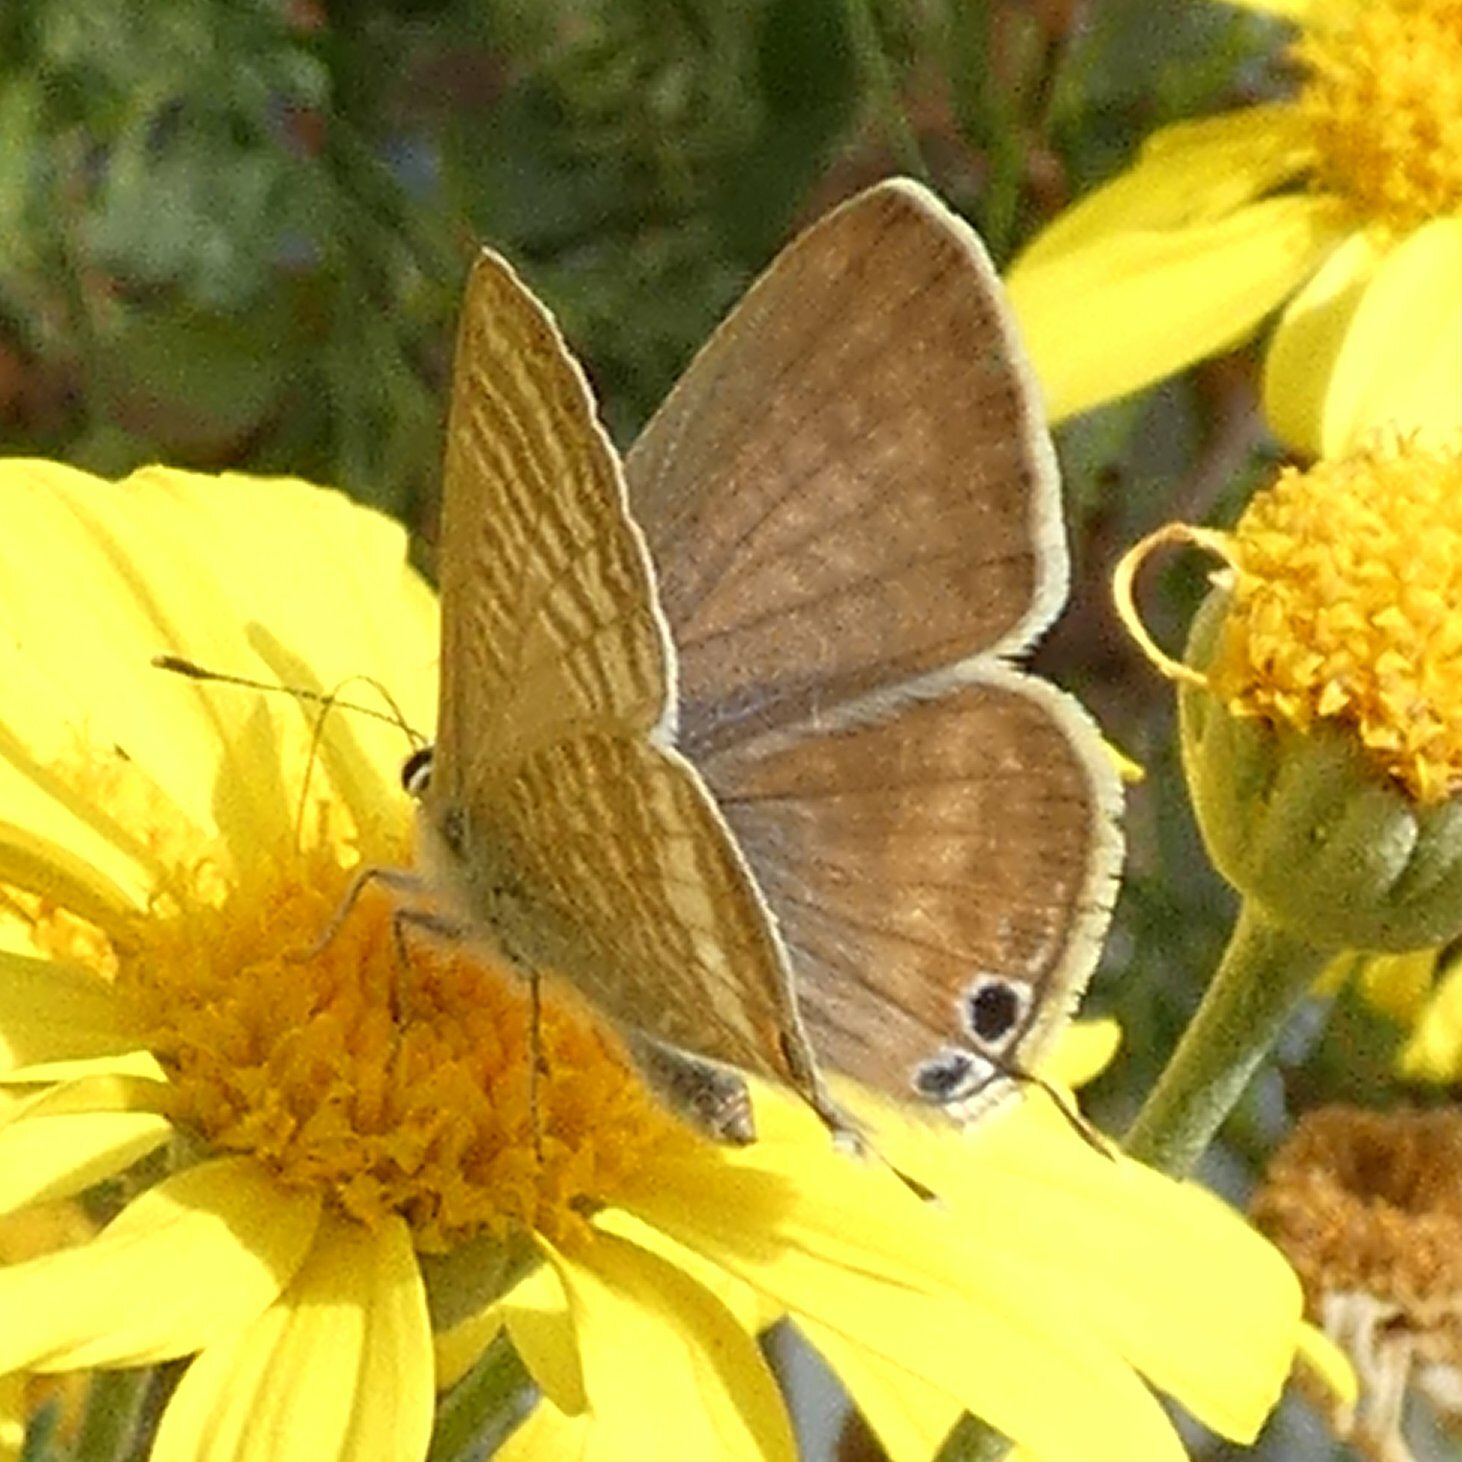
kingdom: Animalia
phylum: Arthropoda
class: Insecta
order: Lepidoptera
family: Lycaenidae
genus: Lampides
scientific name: Lampides boeticus
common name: Long-tailed blue
